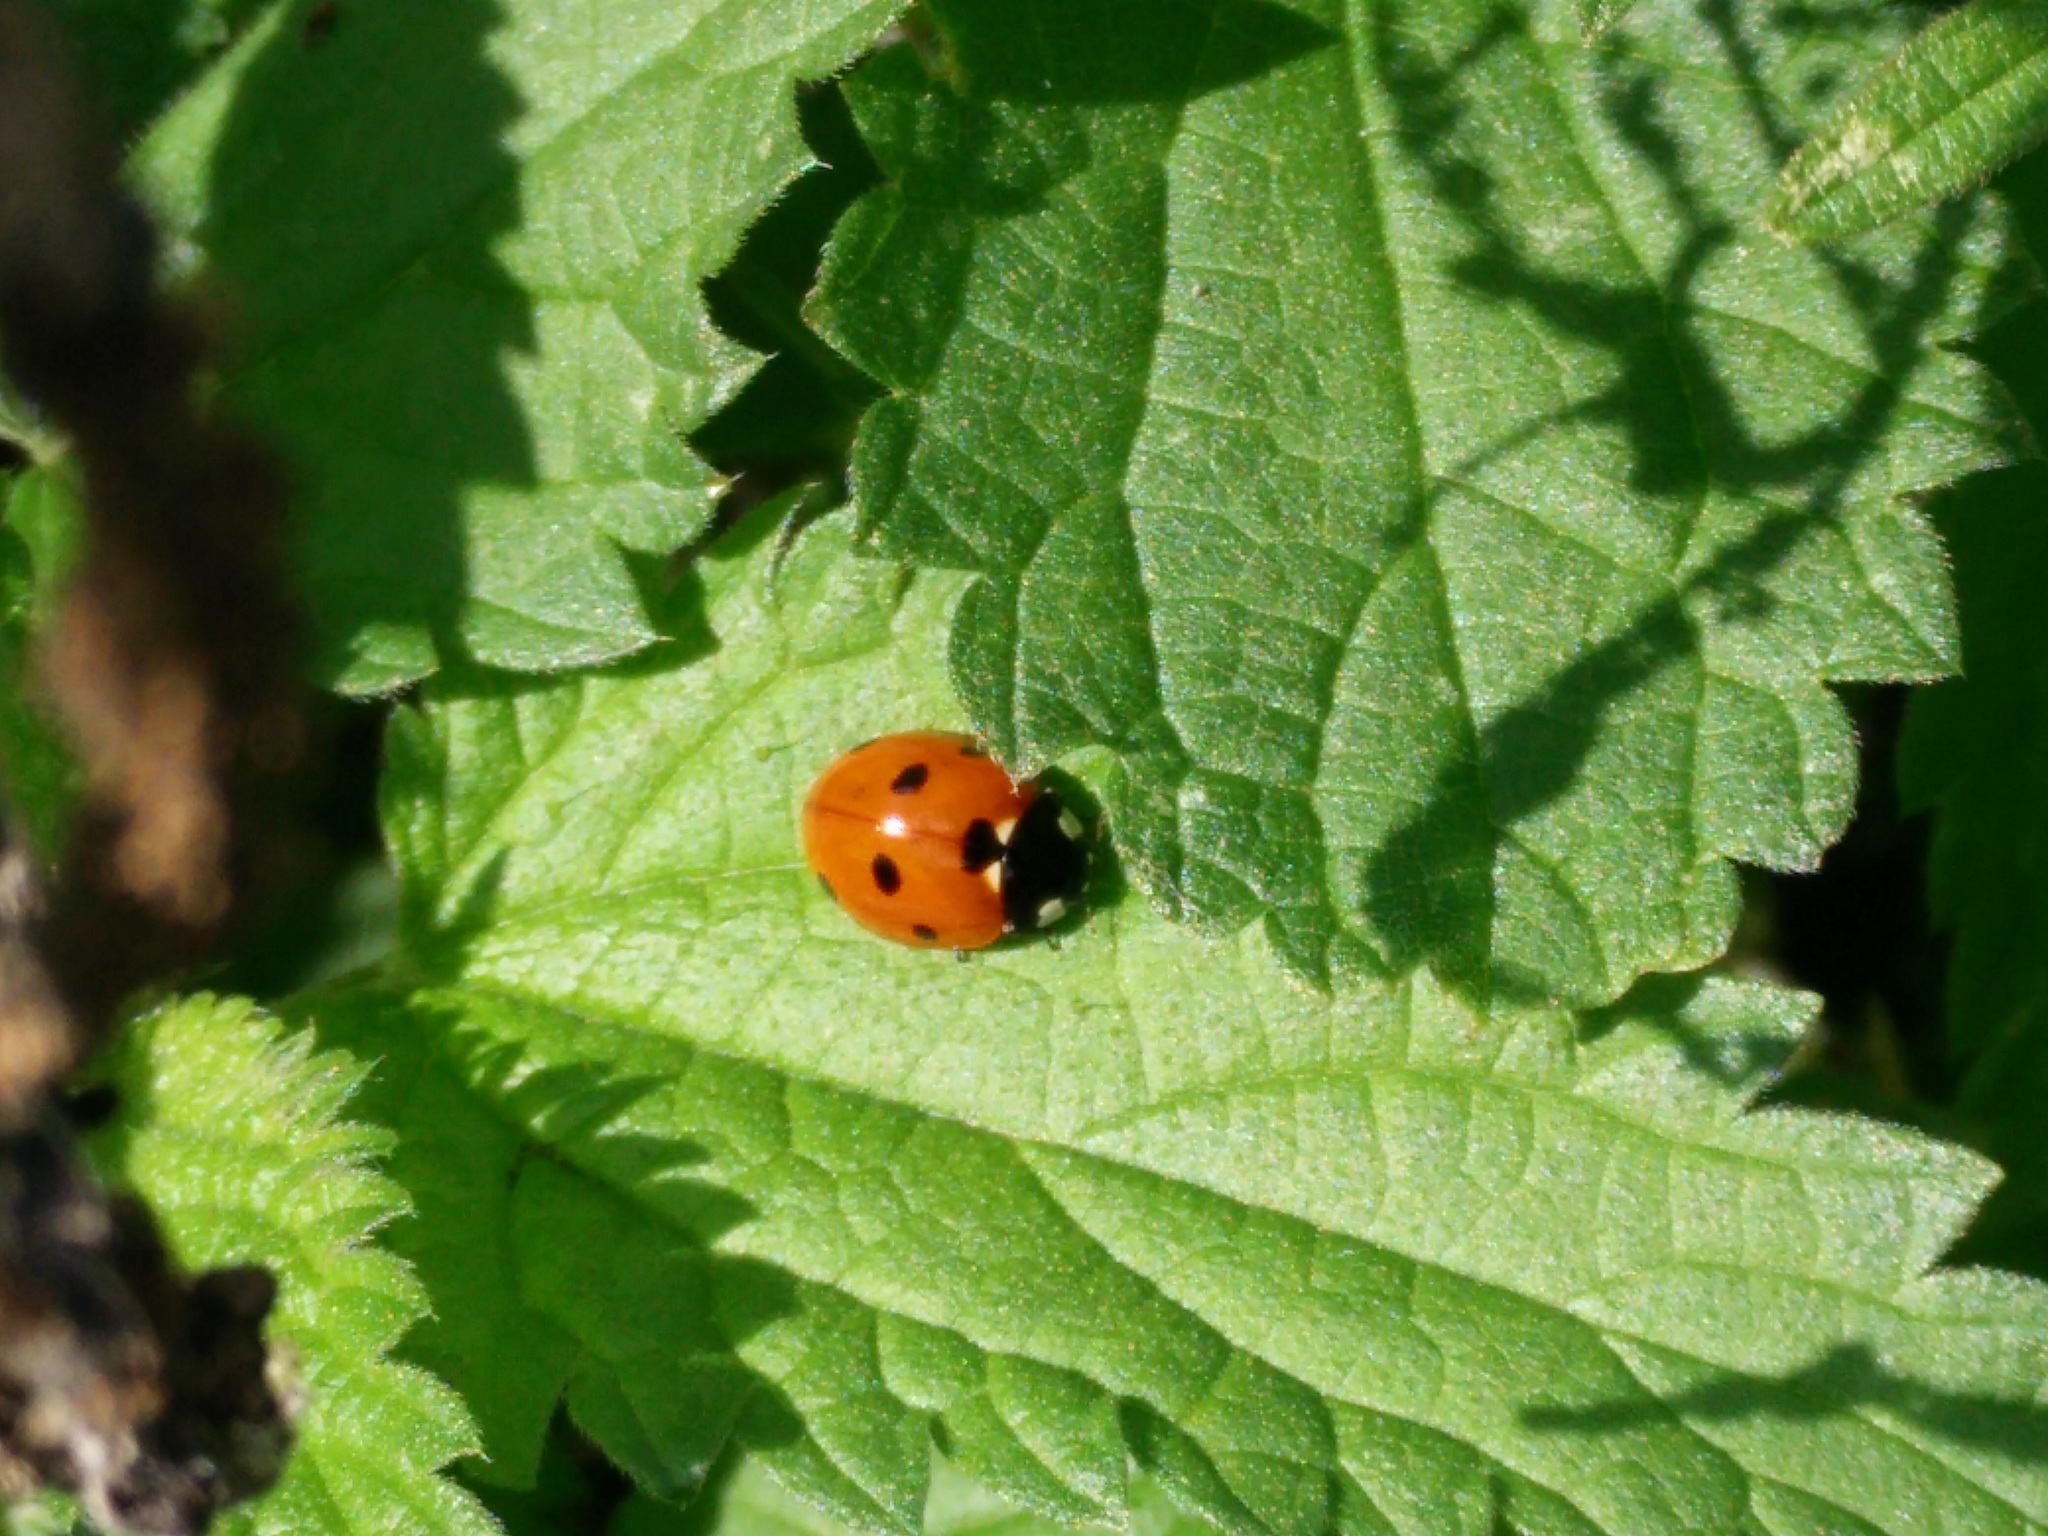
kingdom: Animalia
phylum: Arthropoda
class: Insecta
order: Coleoptera
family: Coccinellidae
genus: Coccinella
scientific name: Coccinella septempunctata
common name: Sevenspotted lady beetle
